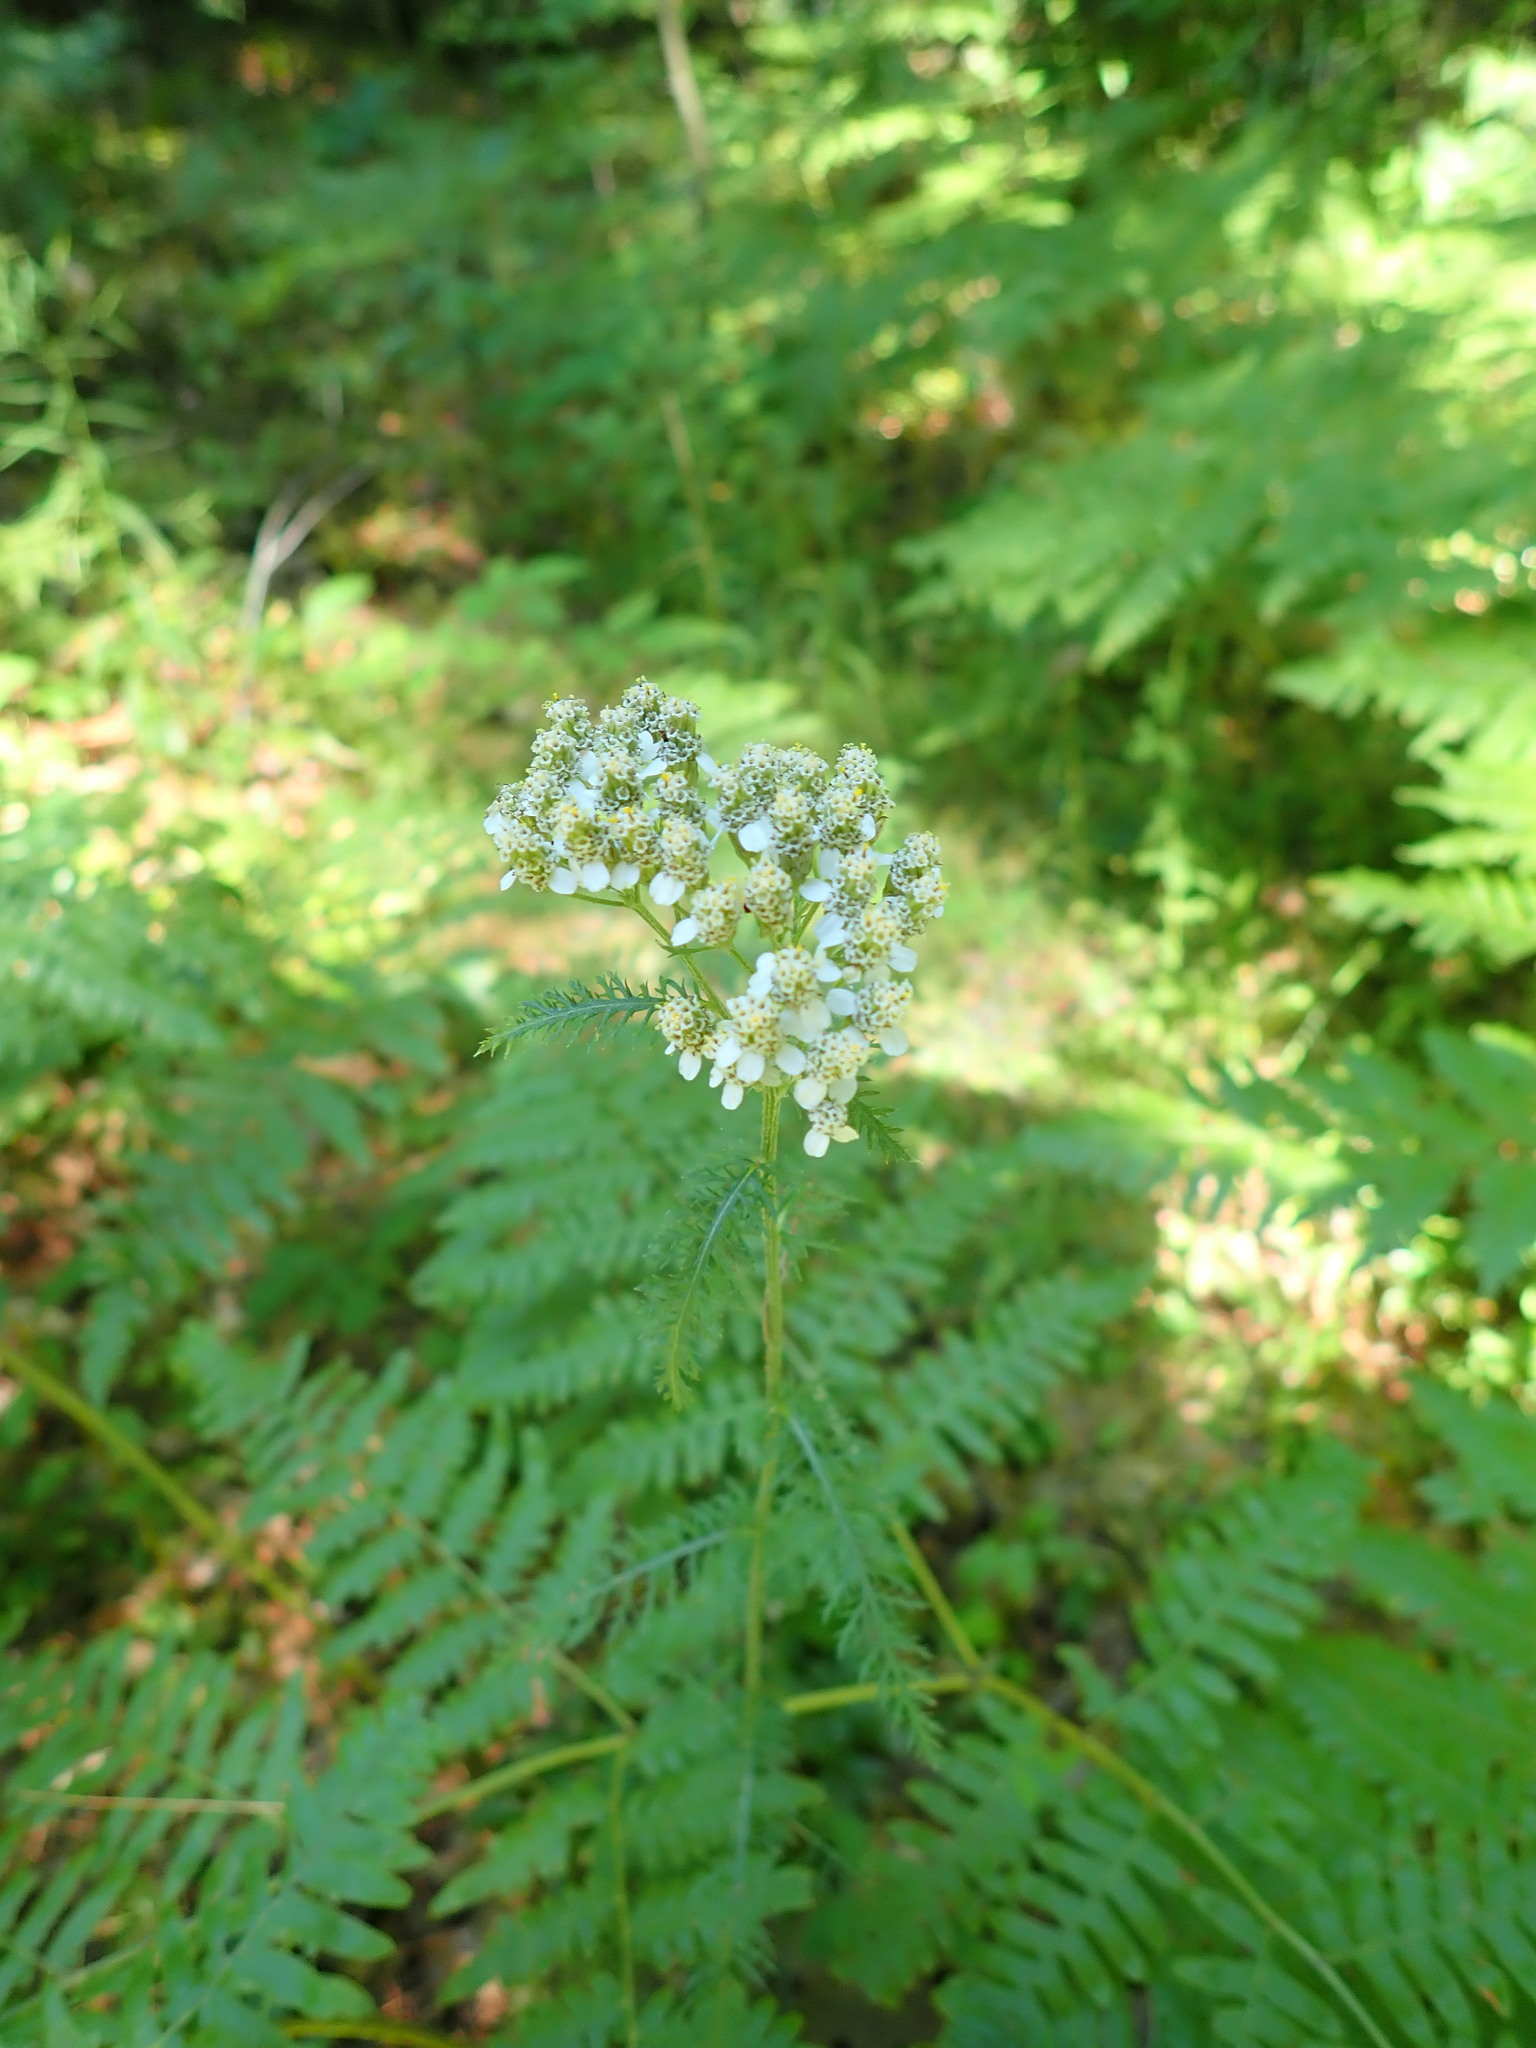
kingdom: Plantae
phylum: Tracheophyta
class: Magnoliopsida
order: Asterales
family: Asteraceae
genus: Achillea
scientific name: Achillea millefolium
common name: Yarrow
